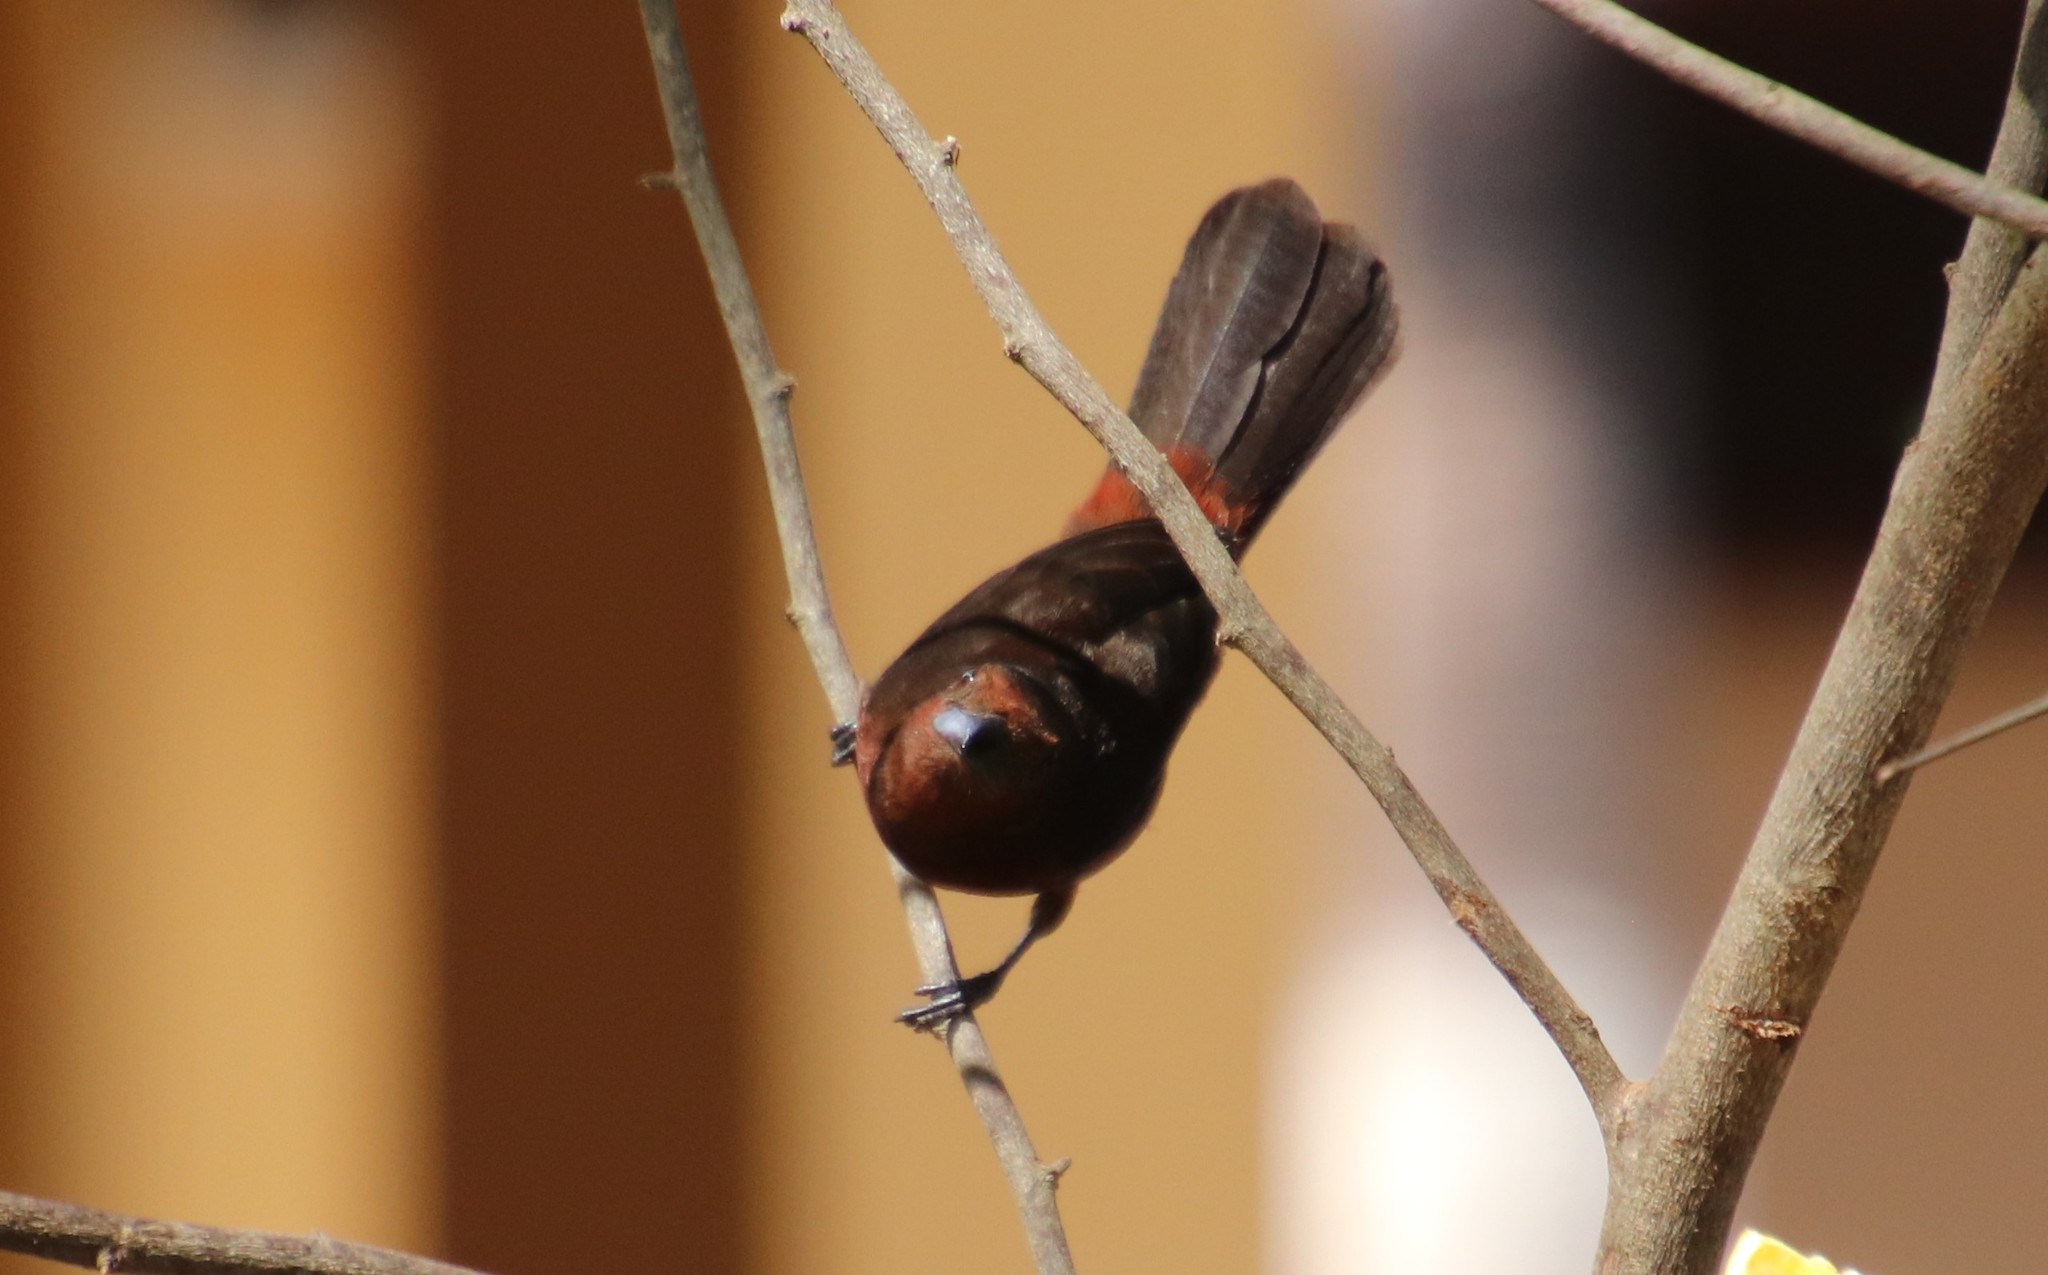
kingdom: Animalia
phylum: Chordata
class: Aves
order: Passeriformes
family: Thraupidae
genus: Ramphocelus
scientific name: Ramphocelus carbo
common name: Silver-beaked tanager
